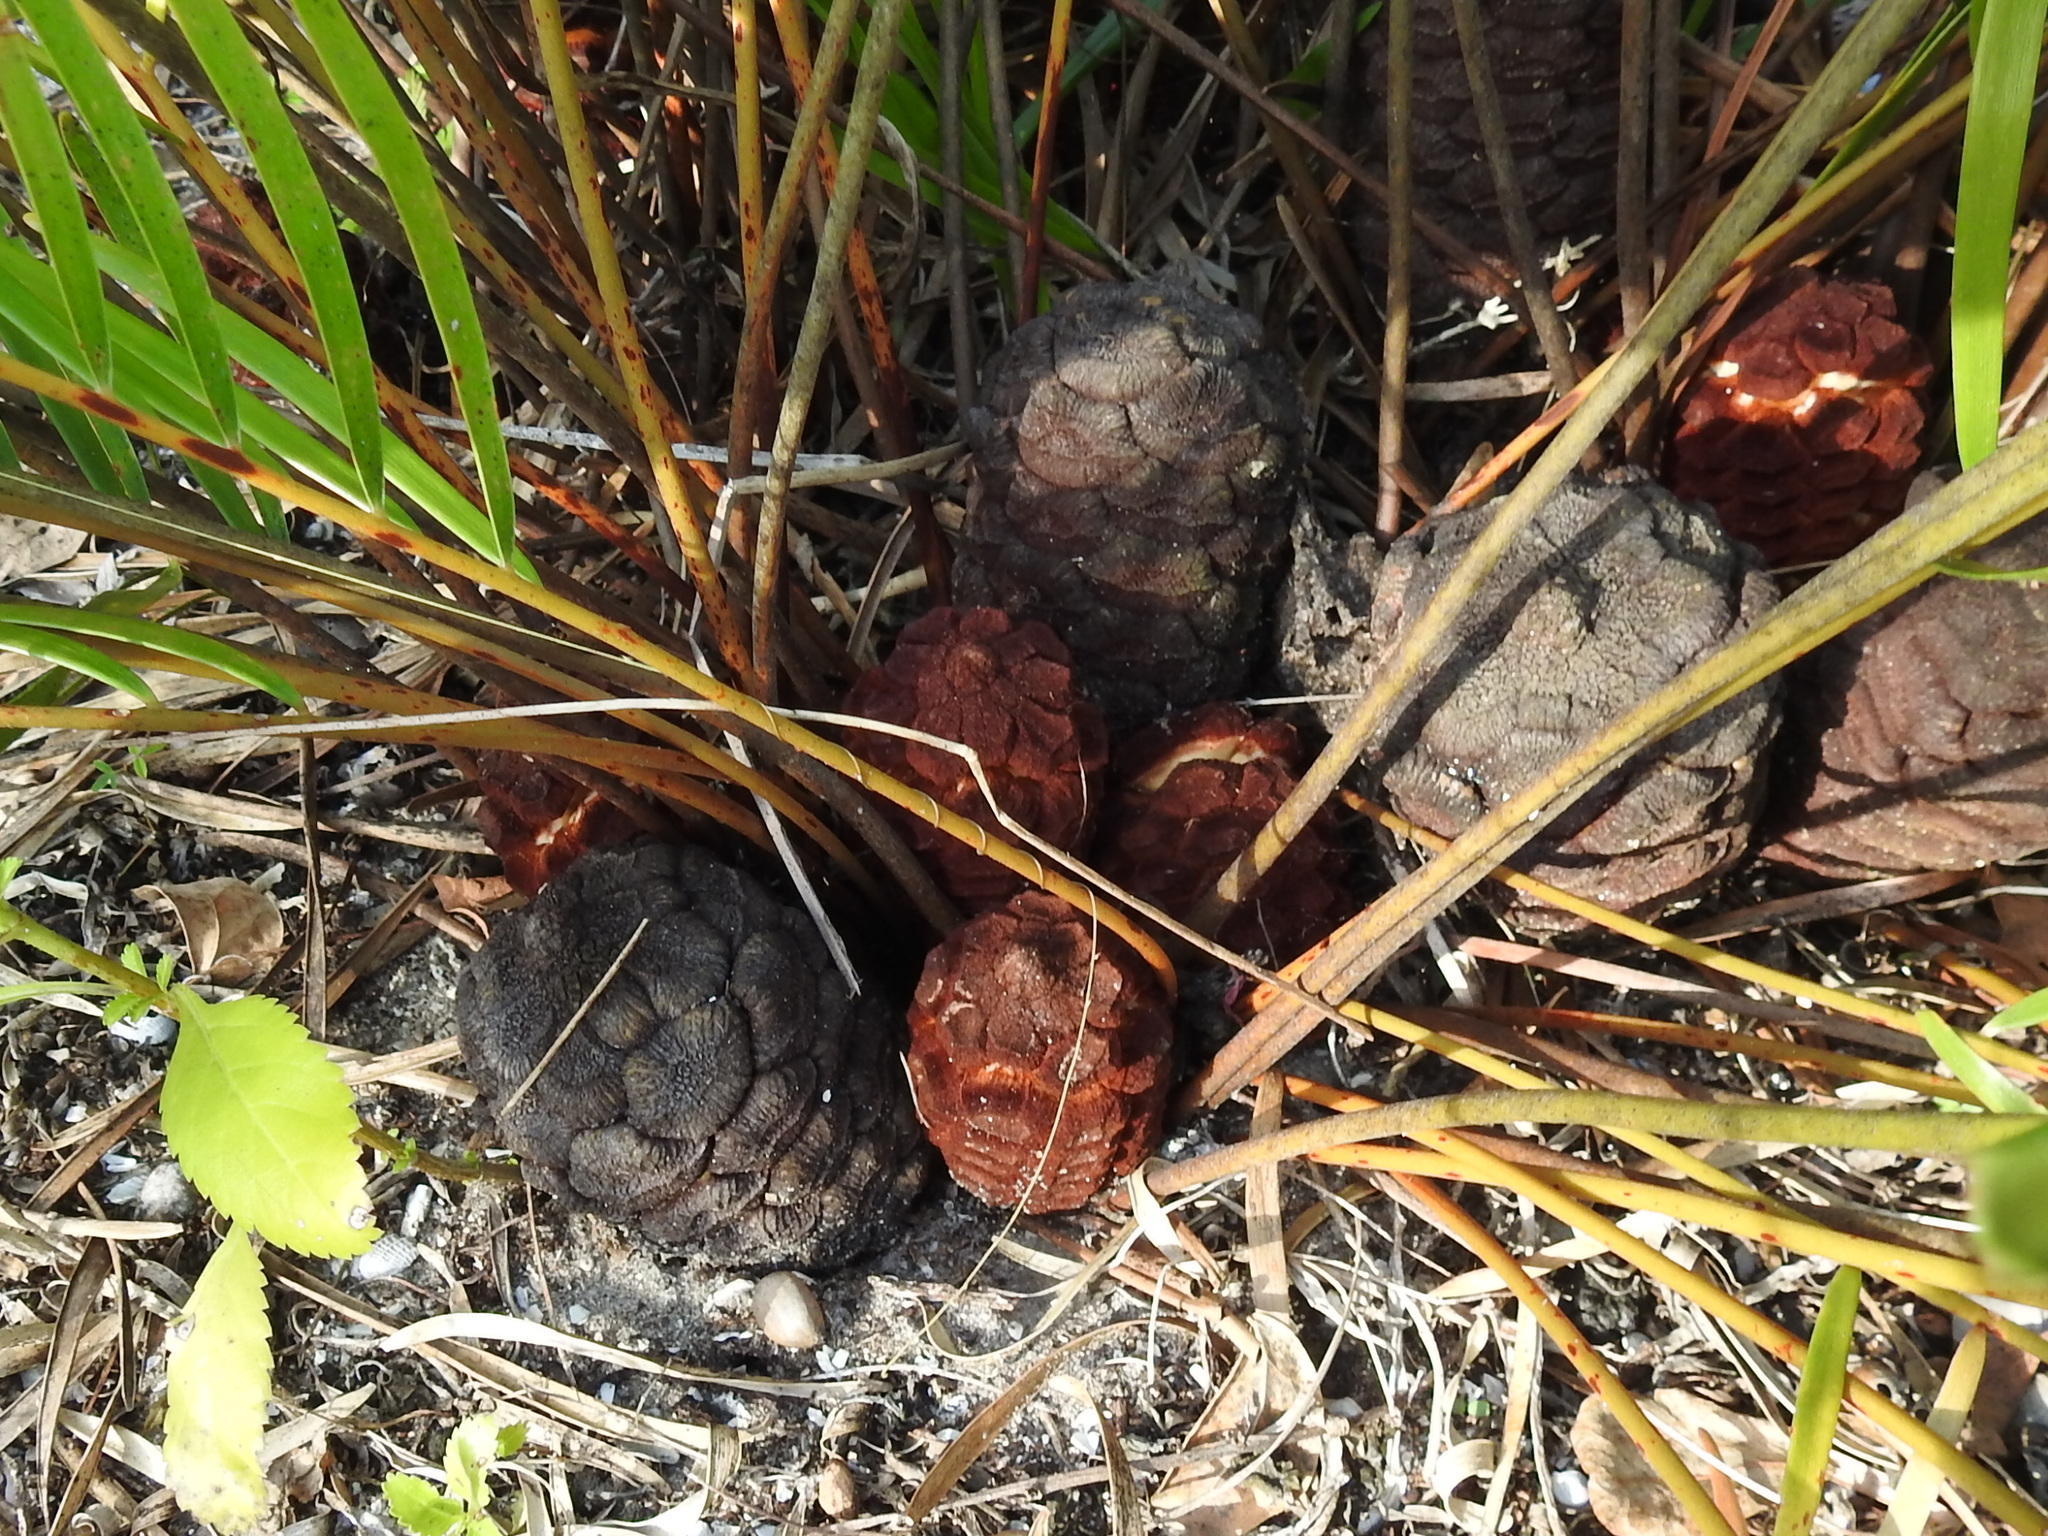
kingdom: Plantae
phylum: Tracheophyta
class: Cycadopsida
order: Cycadales
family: Zamiaceae
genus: Zamia
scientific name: Zamia integrifolia
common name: Florida arrowroot
